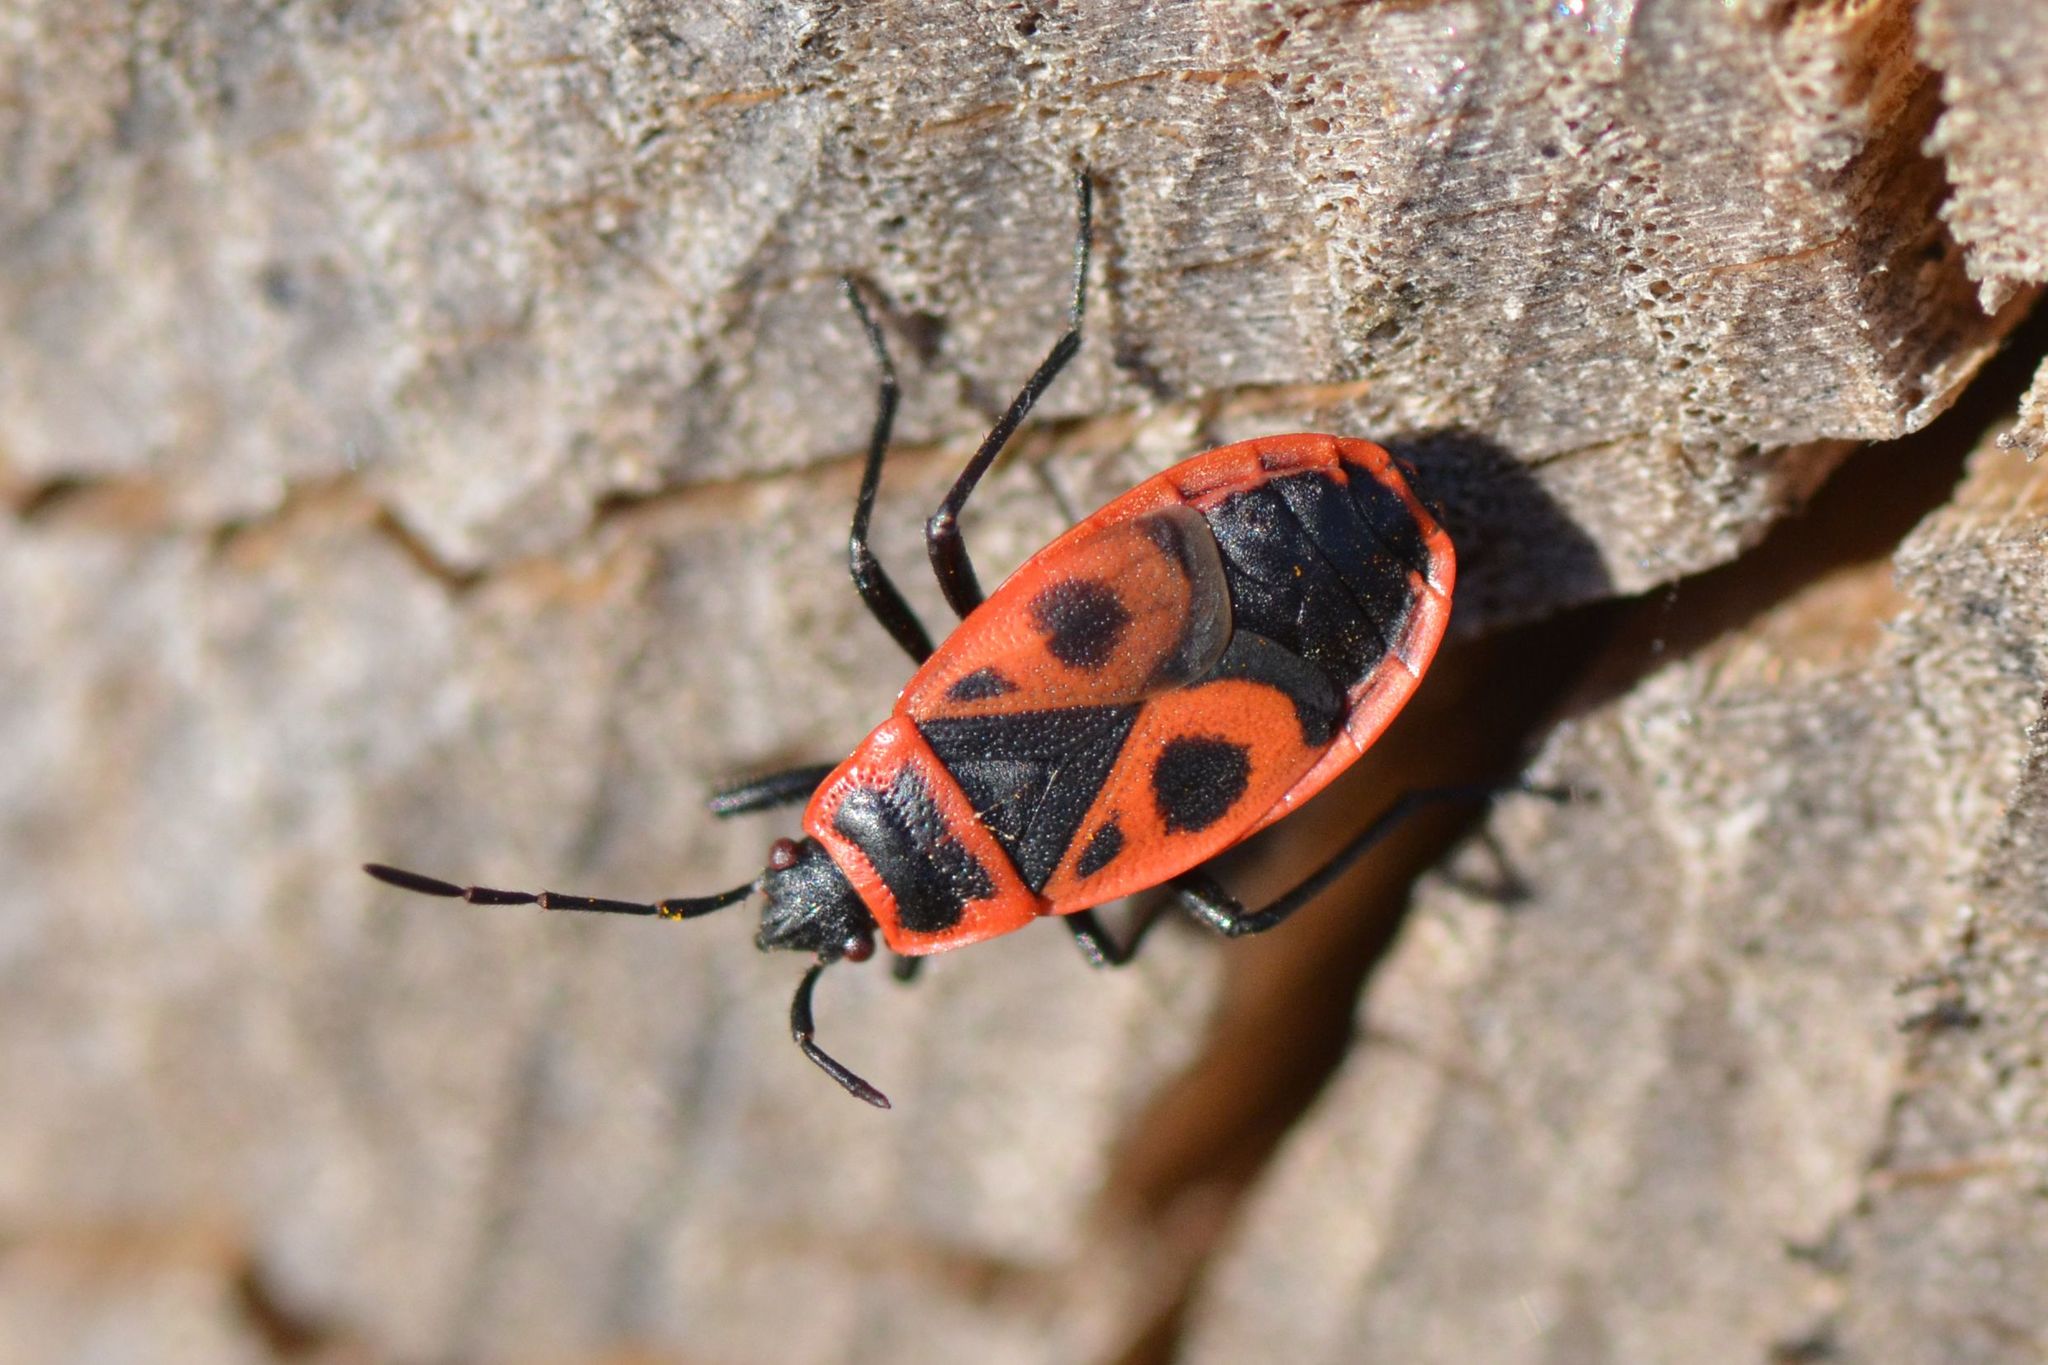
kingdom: Animalia
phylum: Arthropoda
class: Insecta
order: Hemiptera
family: Pyrrhocoridae
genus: Pyrrhocoris
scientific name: Pyrrhocoris apterus
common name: Firebug
